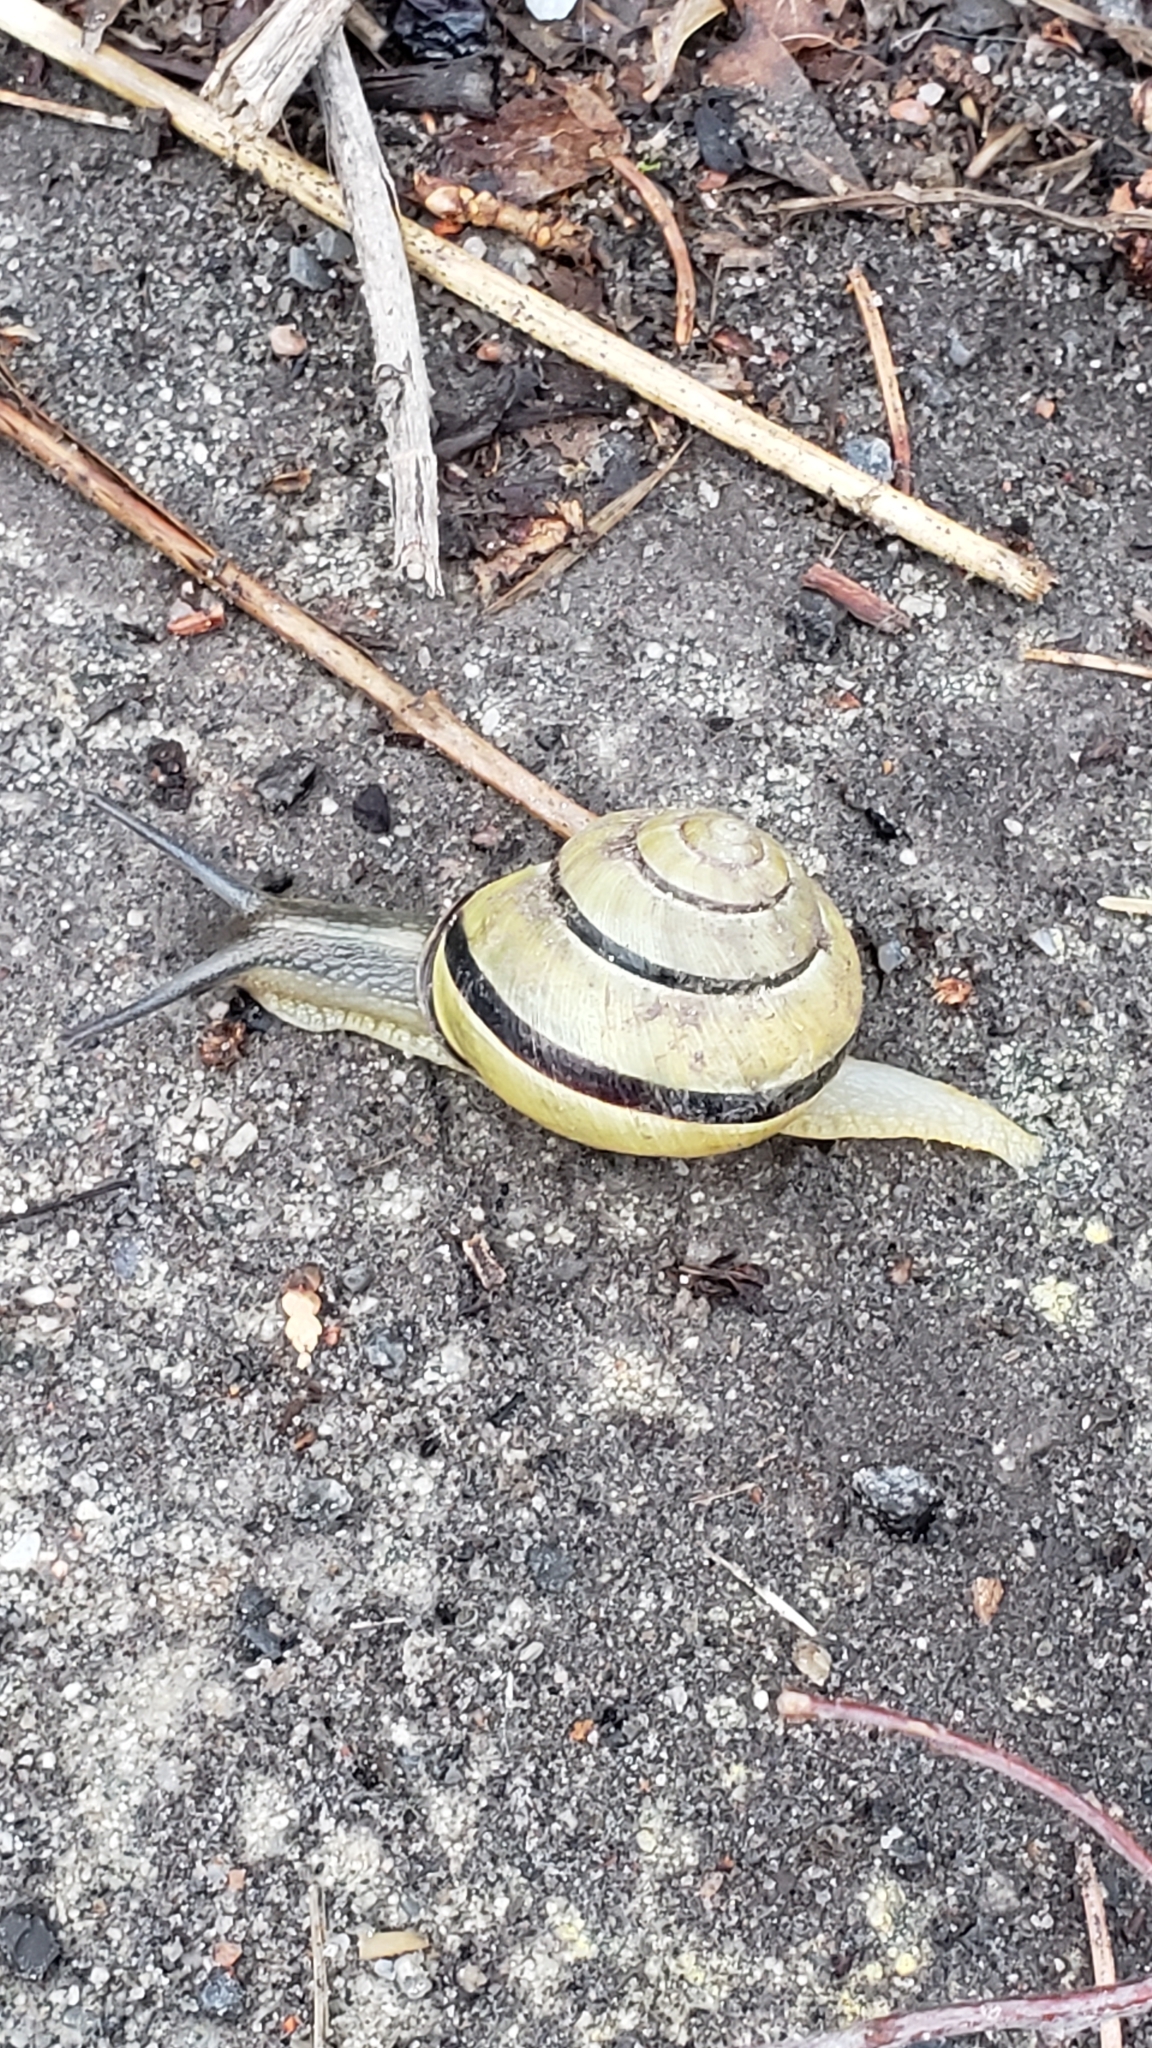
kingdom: Animalia
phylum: Mollusca
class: Gastropoda
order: Stylommatophora
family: Helicidae
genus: Cepaea
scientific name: Cepaea nemoralis
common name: Grovesnail
